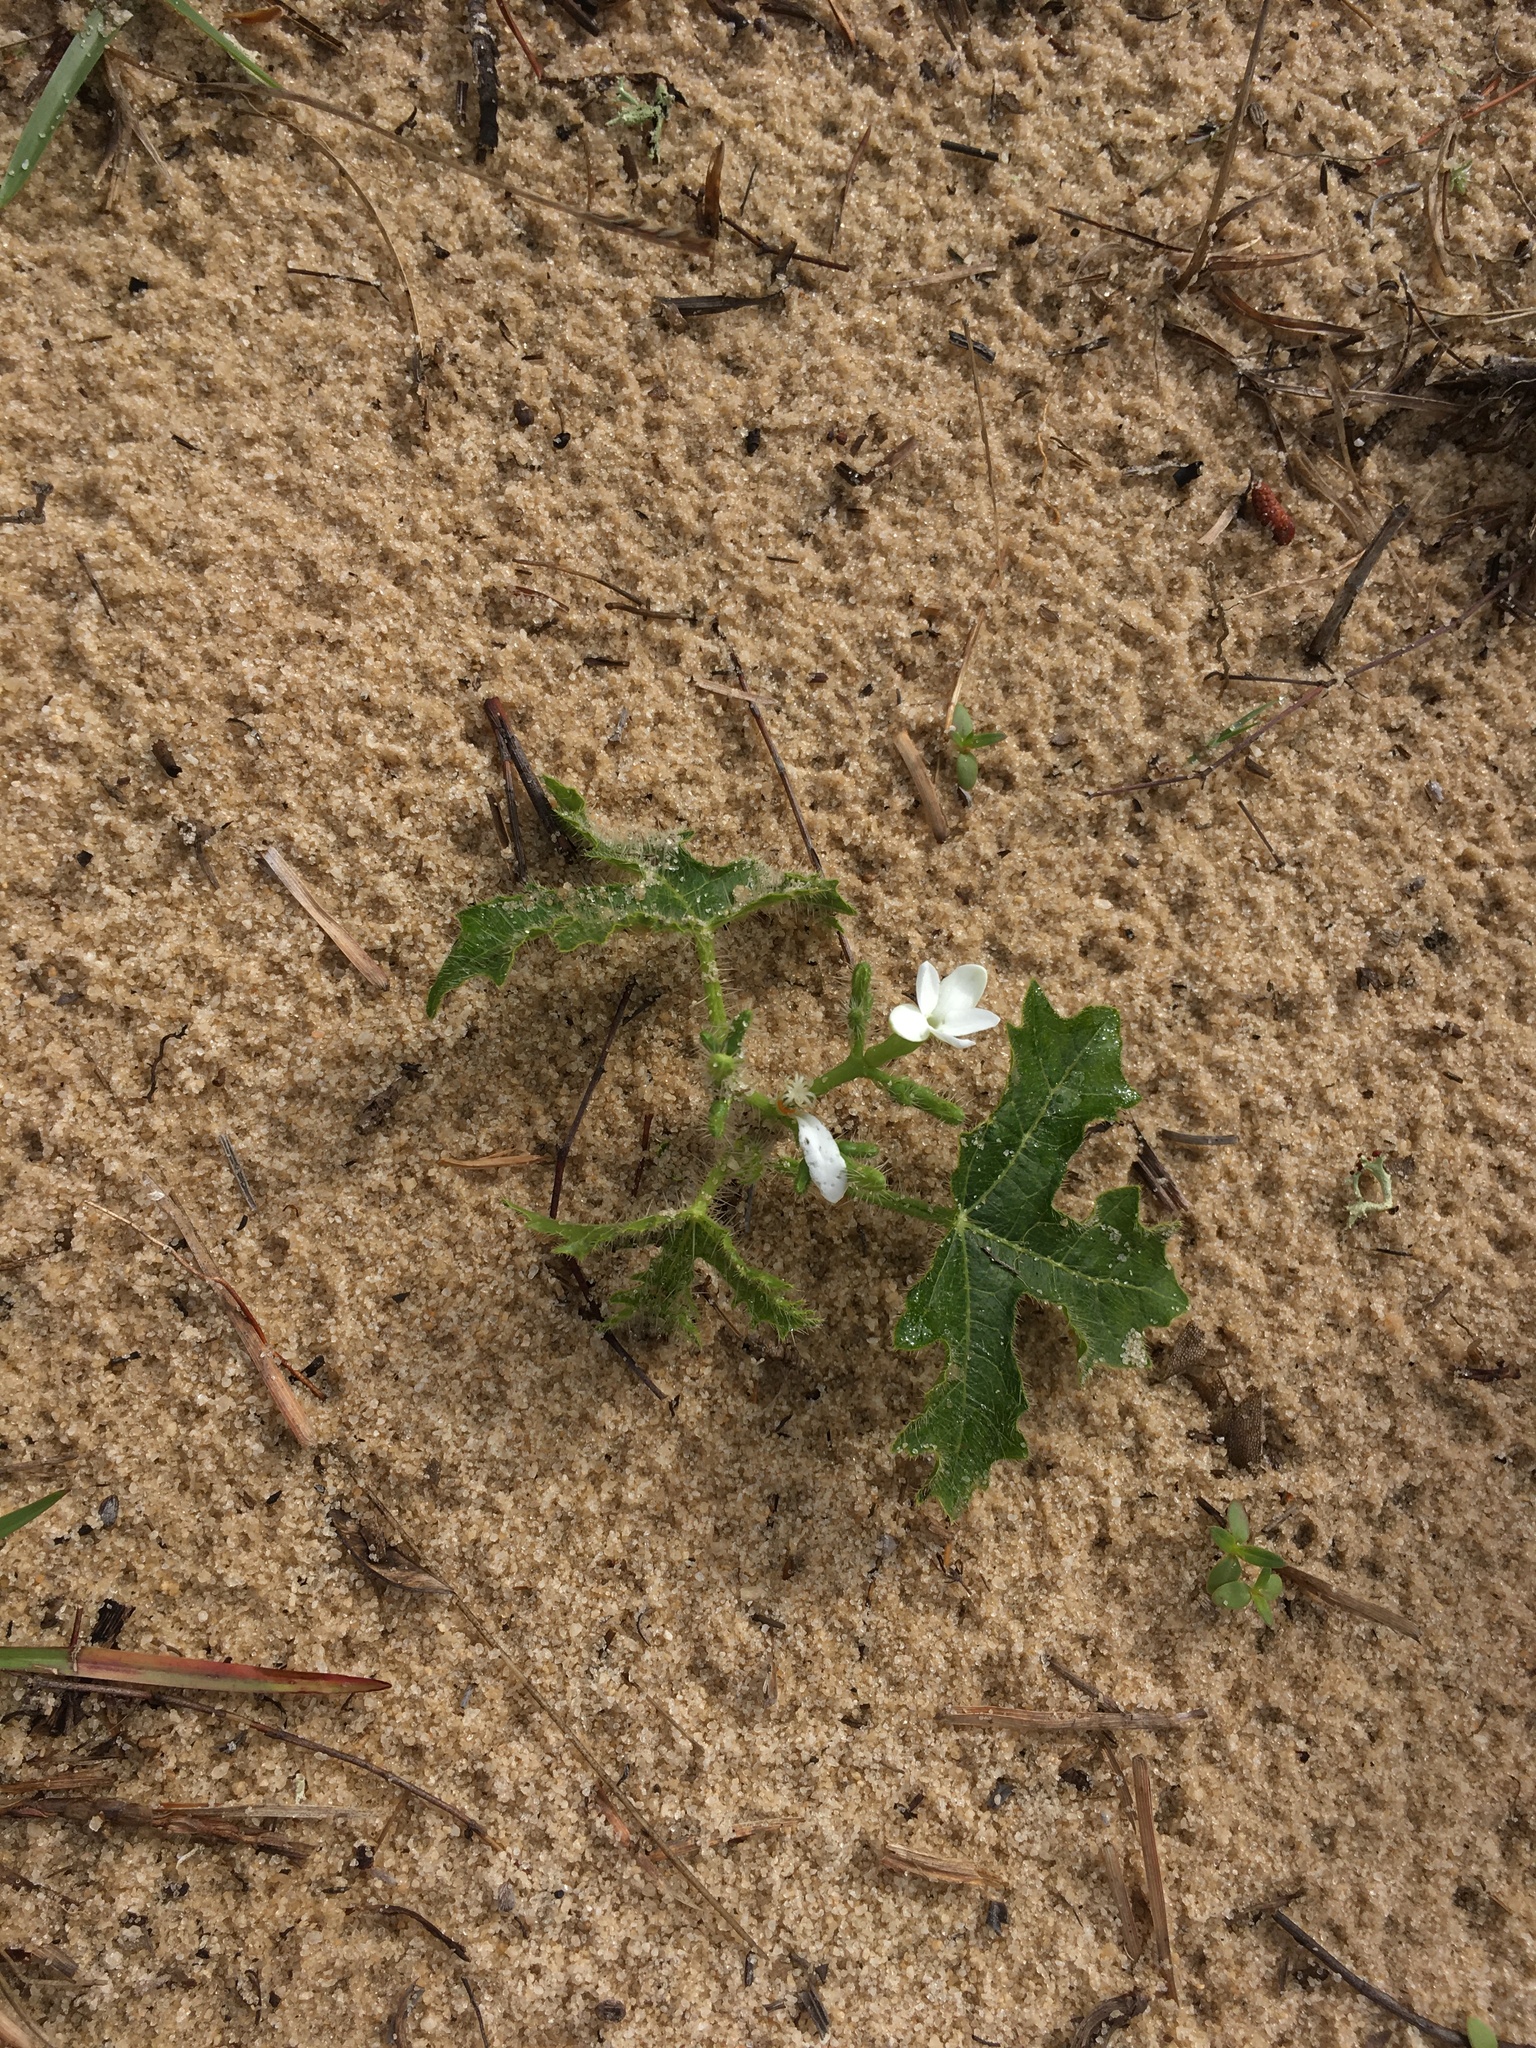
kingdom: Plantae
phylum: Tracheophyta
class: Magnoliopsida
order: Malpighiales
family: Euphorbiaceae
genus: Cnidoscolus
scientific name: Cnidoscolus stimulosus
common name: Bull-nettle
